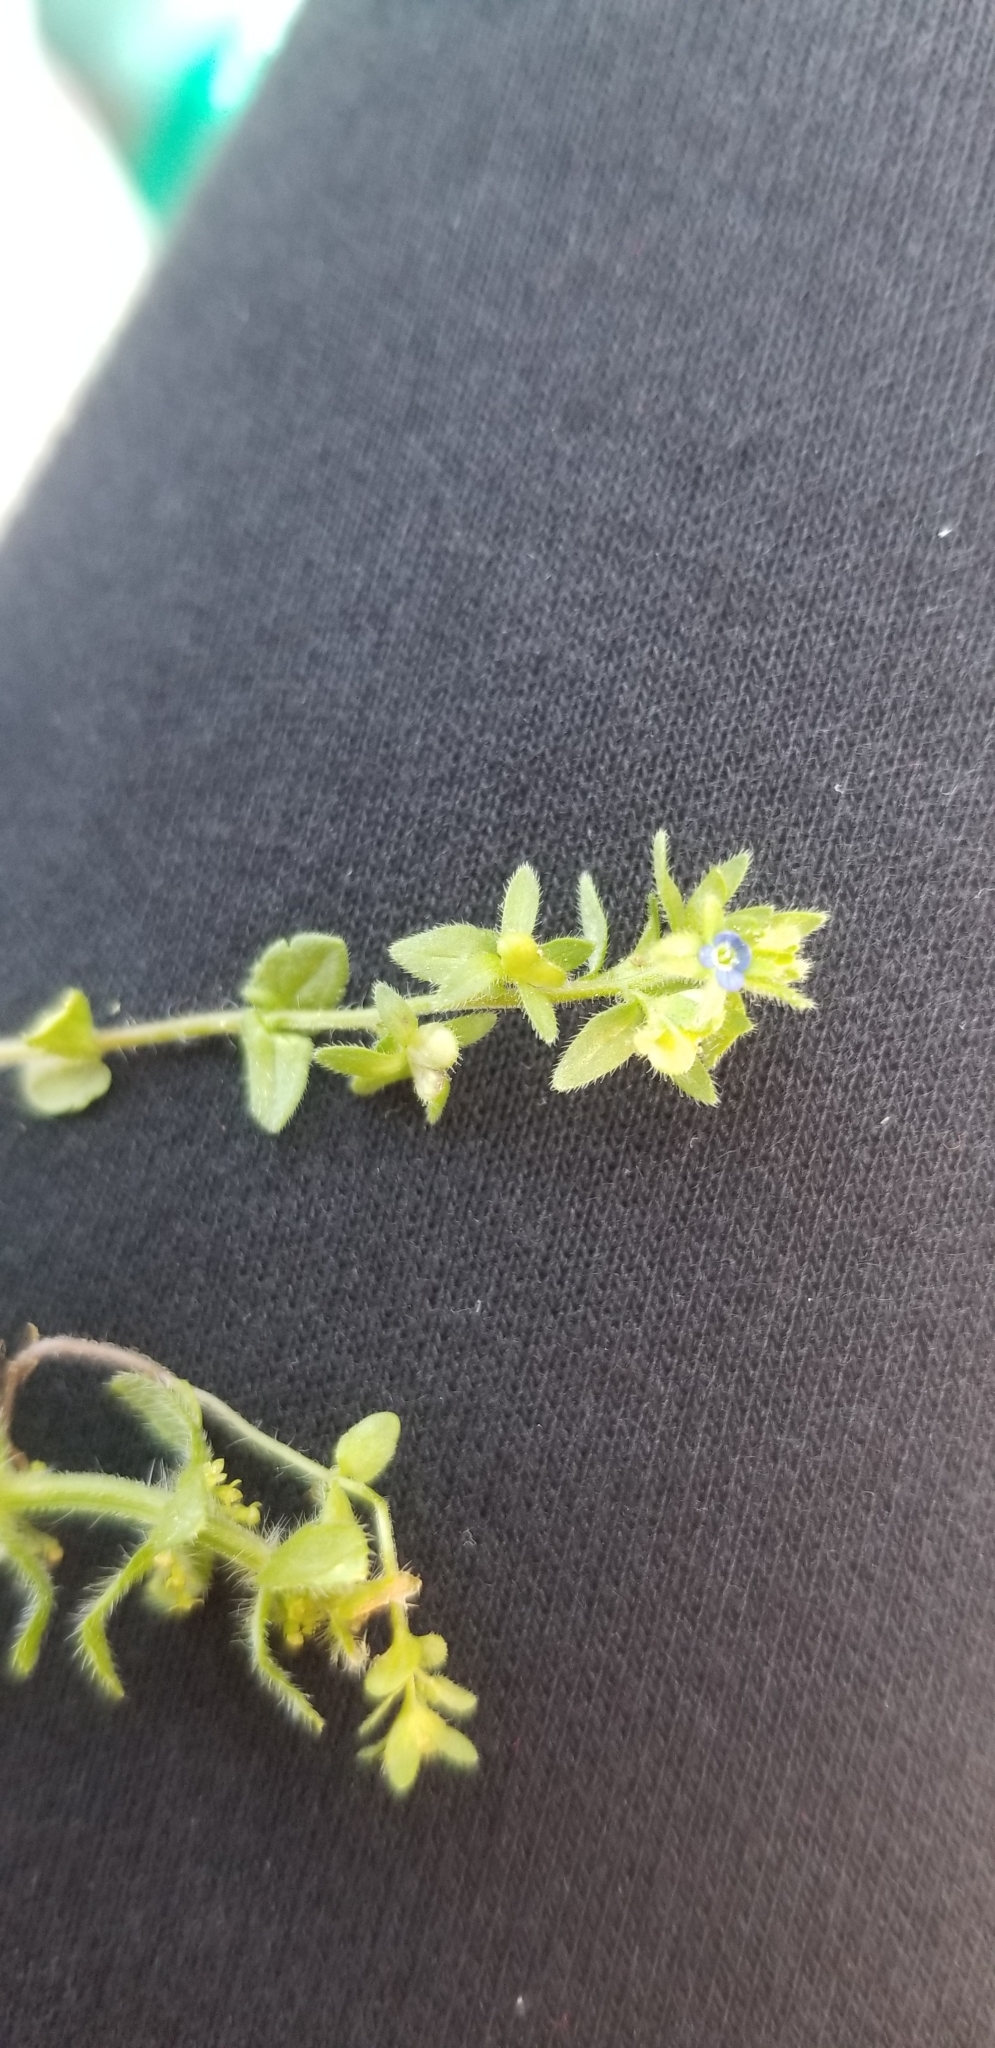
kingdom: Plantae
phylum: Tracheophyta
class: Magnoliopsida
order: Lamiales
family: Plantaginaceae
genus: Veronica
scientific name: Veronica arvensis
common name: Corn speedwell
